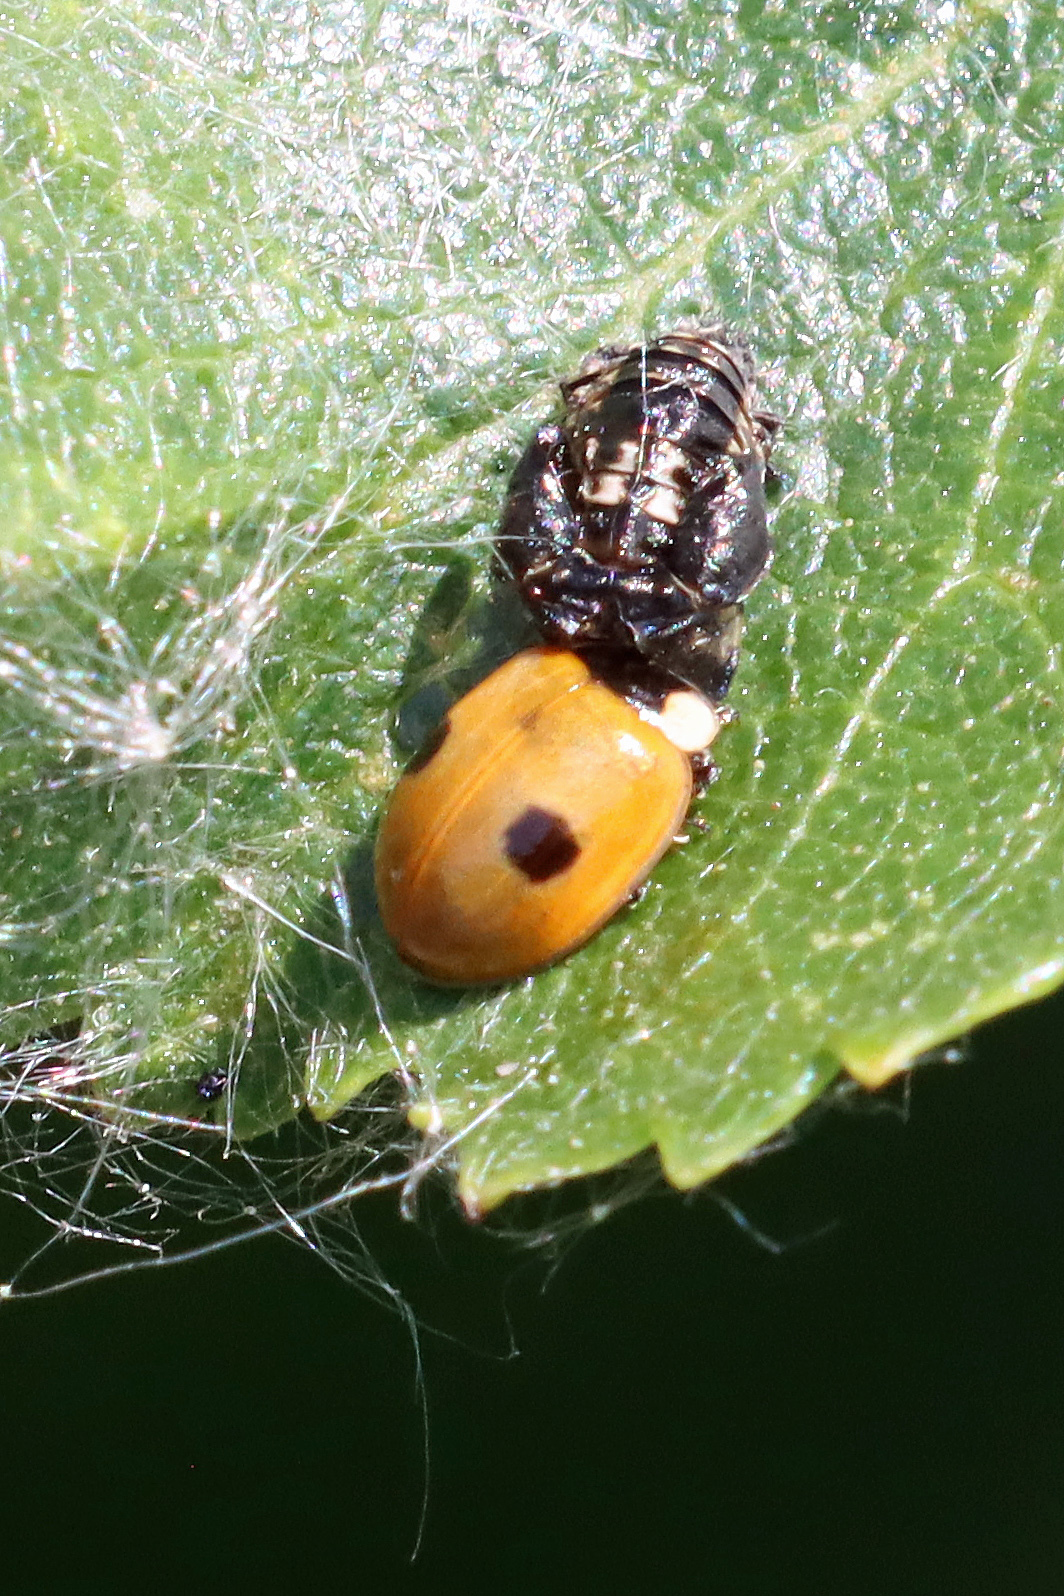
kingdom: Animalia
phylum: Arthropoda
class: Insecta
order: Coleoptera
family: Coccinellidae
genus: Adalia
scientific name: Adalia bipunctata
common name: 2-spot ladybird
